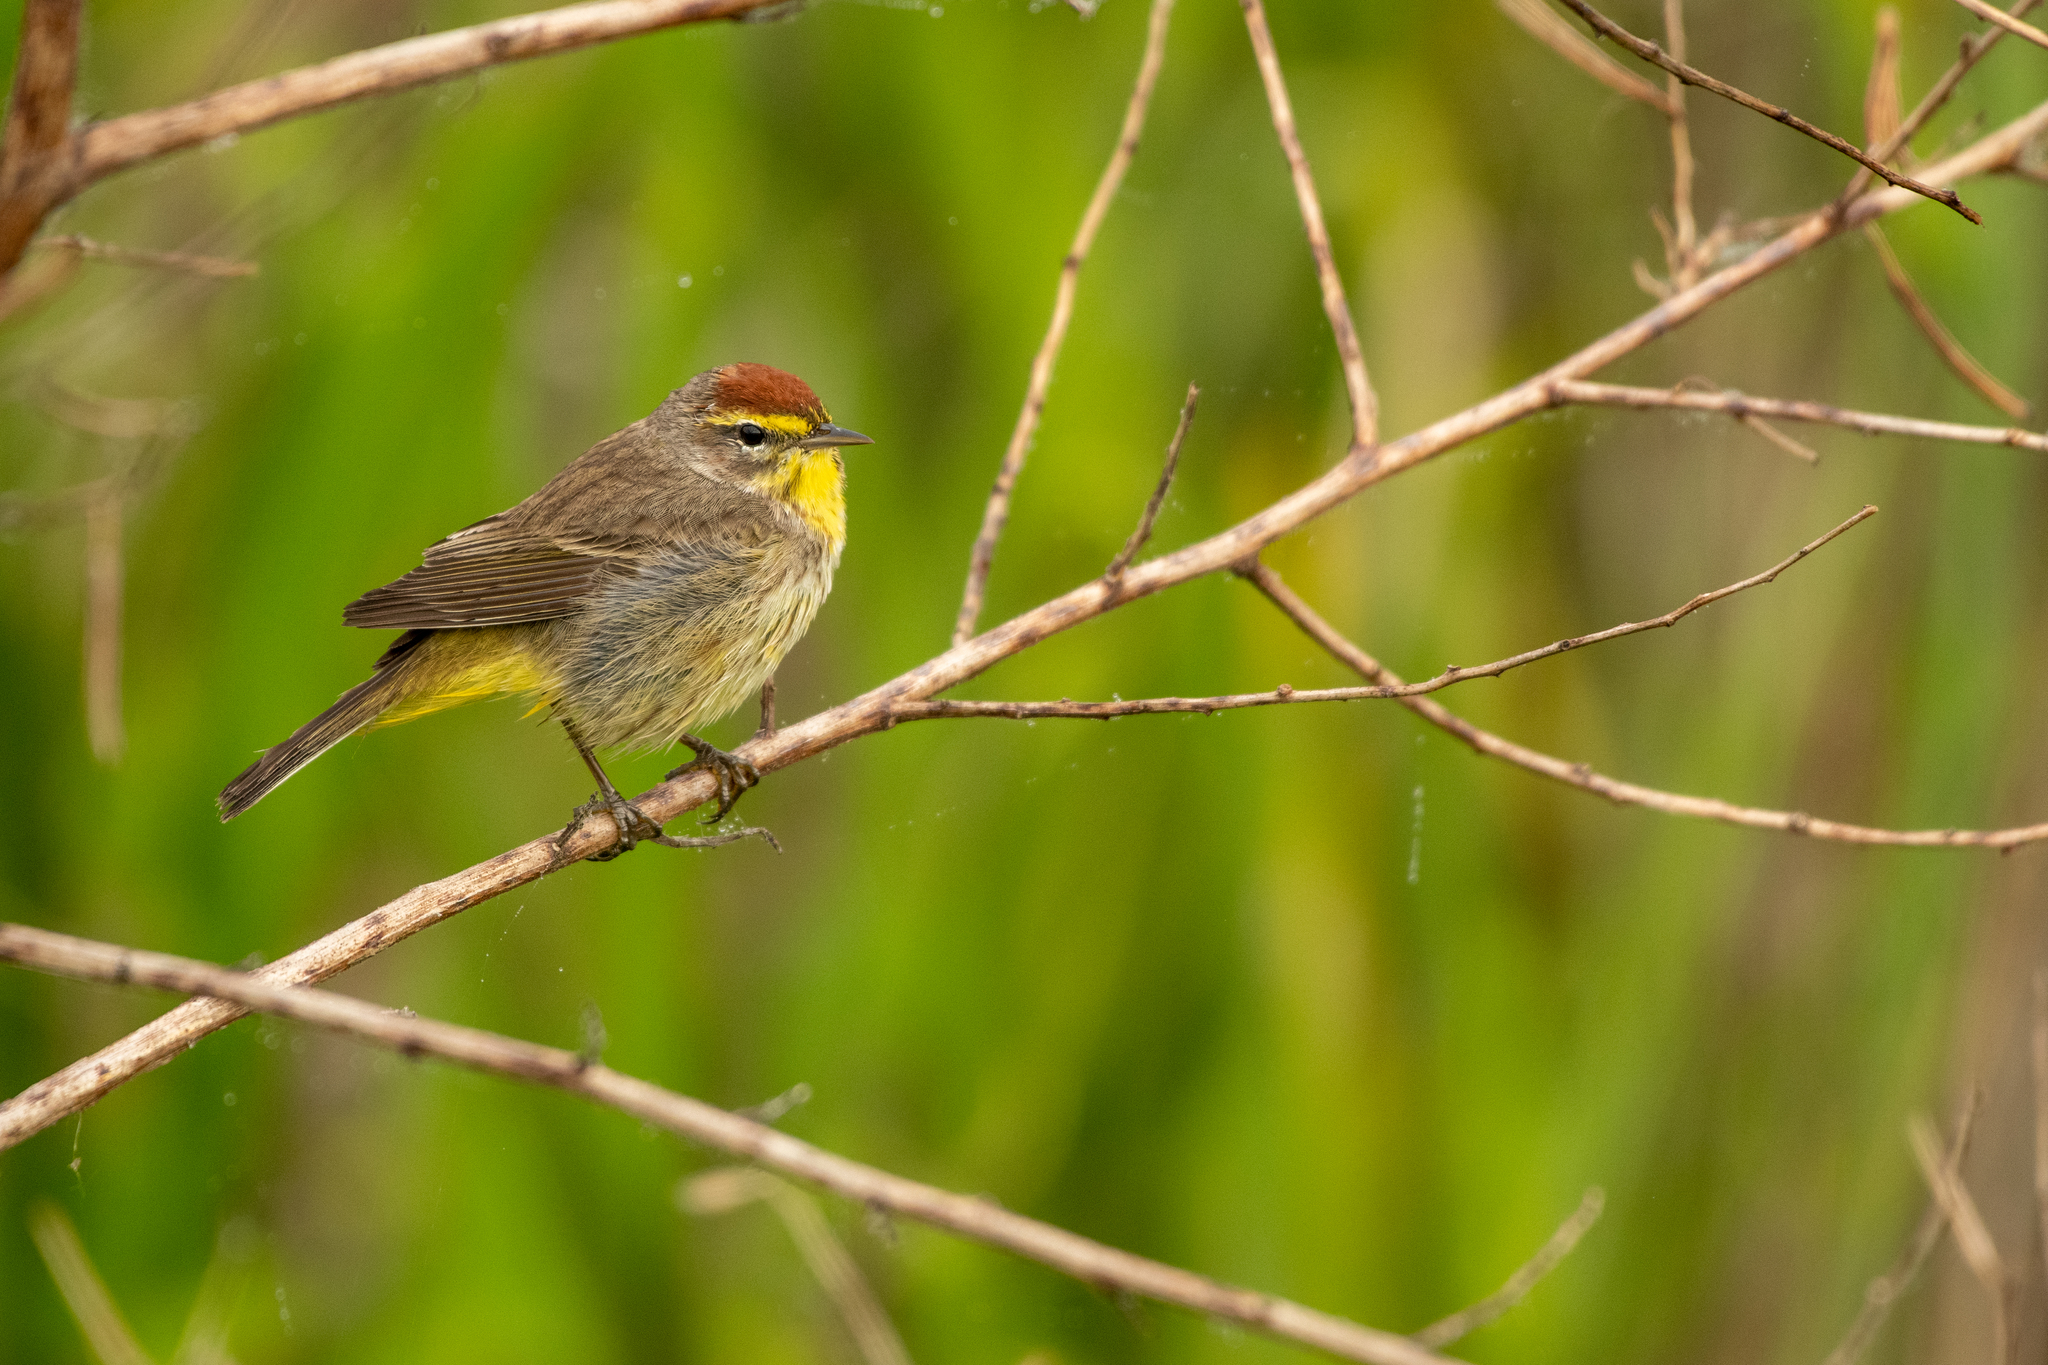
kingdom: Animalia
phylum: Chordata
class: Aves
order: Passeriformes
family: Parulidae
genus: Setophaga
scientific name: Setophaga palmarum
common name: Palm warbler
